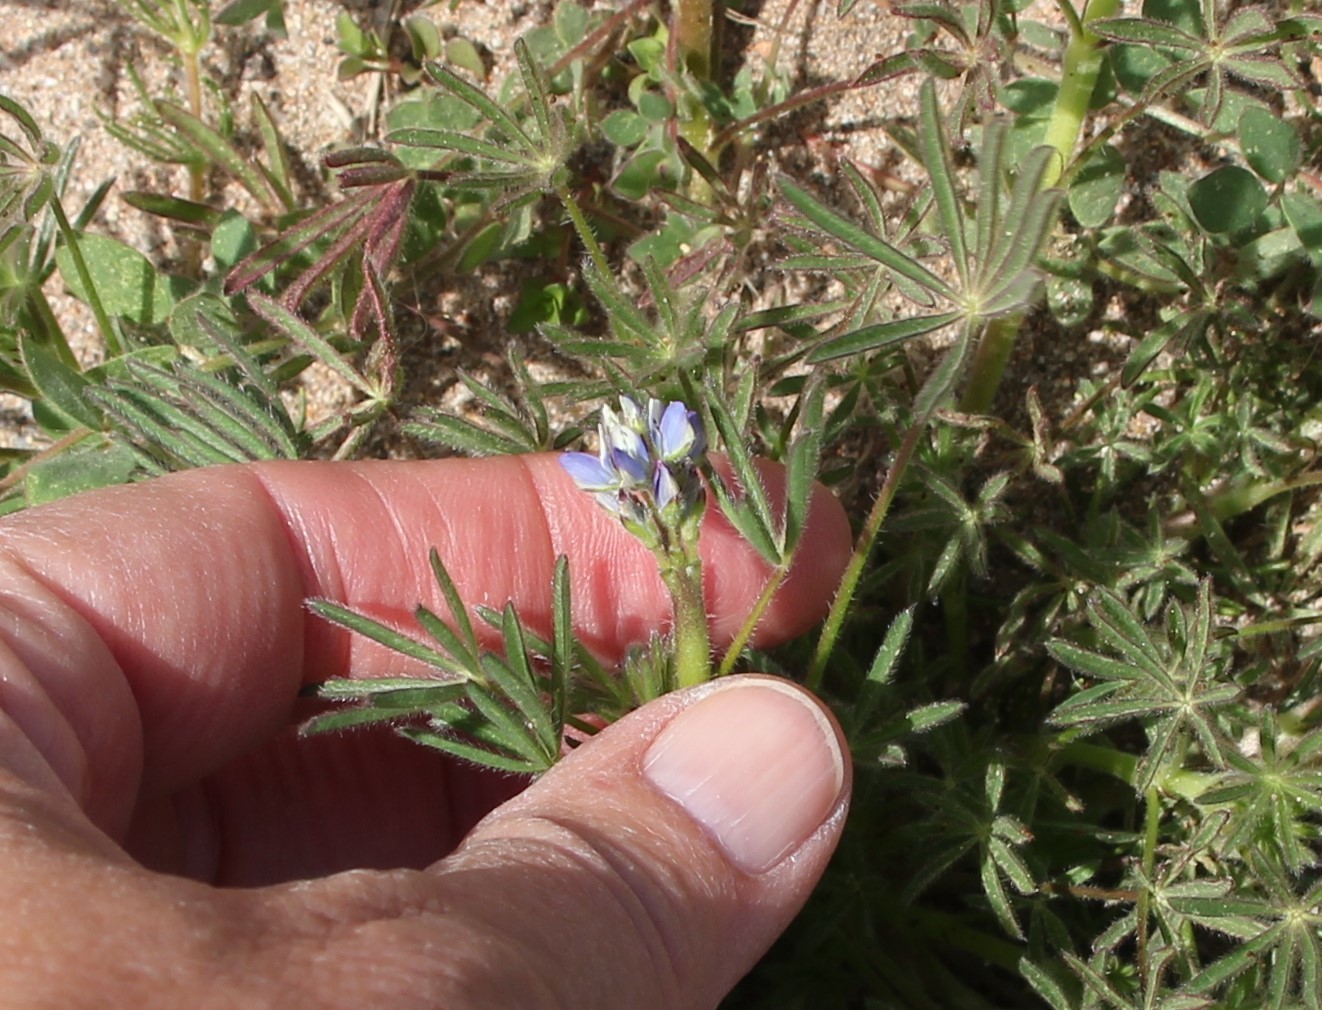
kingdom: Plantae
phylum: Tracheophyta
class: Magnoliopsida
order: Fabales
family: Fabaceae
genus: Lupinus
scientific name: Lupinus bicolor
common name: Miniature lupine
